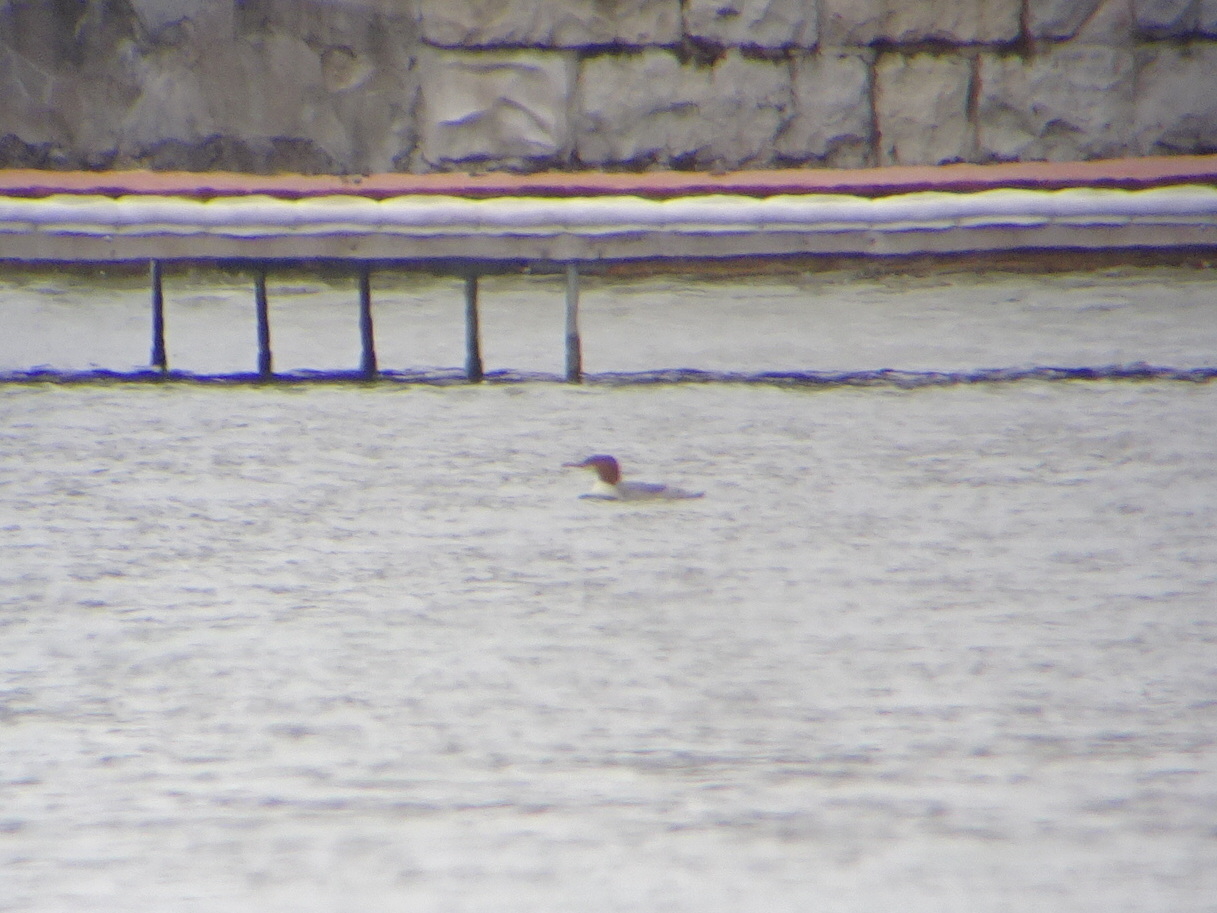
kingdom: Animalia
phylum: Chordata
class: Aves
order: Anseriformes
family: Anatidae
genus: Mergus
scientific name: Mergus merganser
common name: Common merganser
